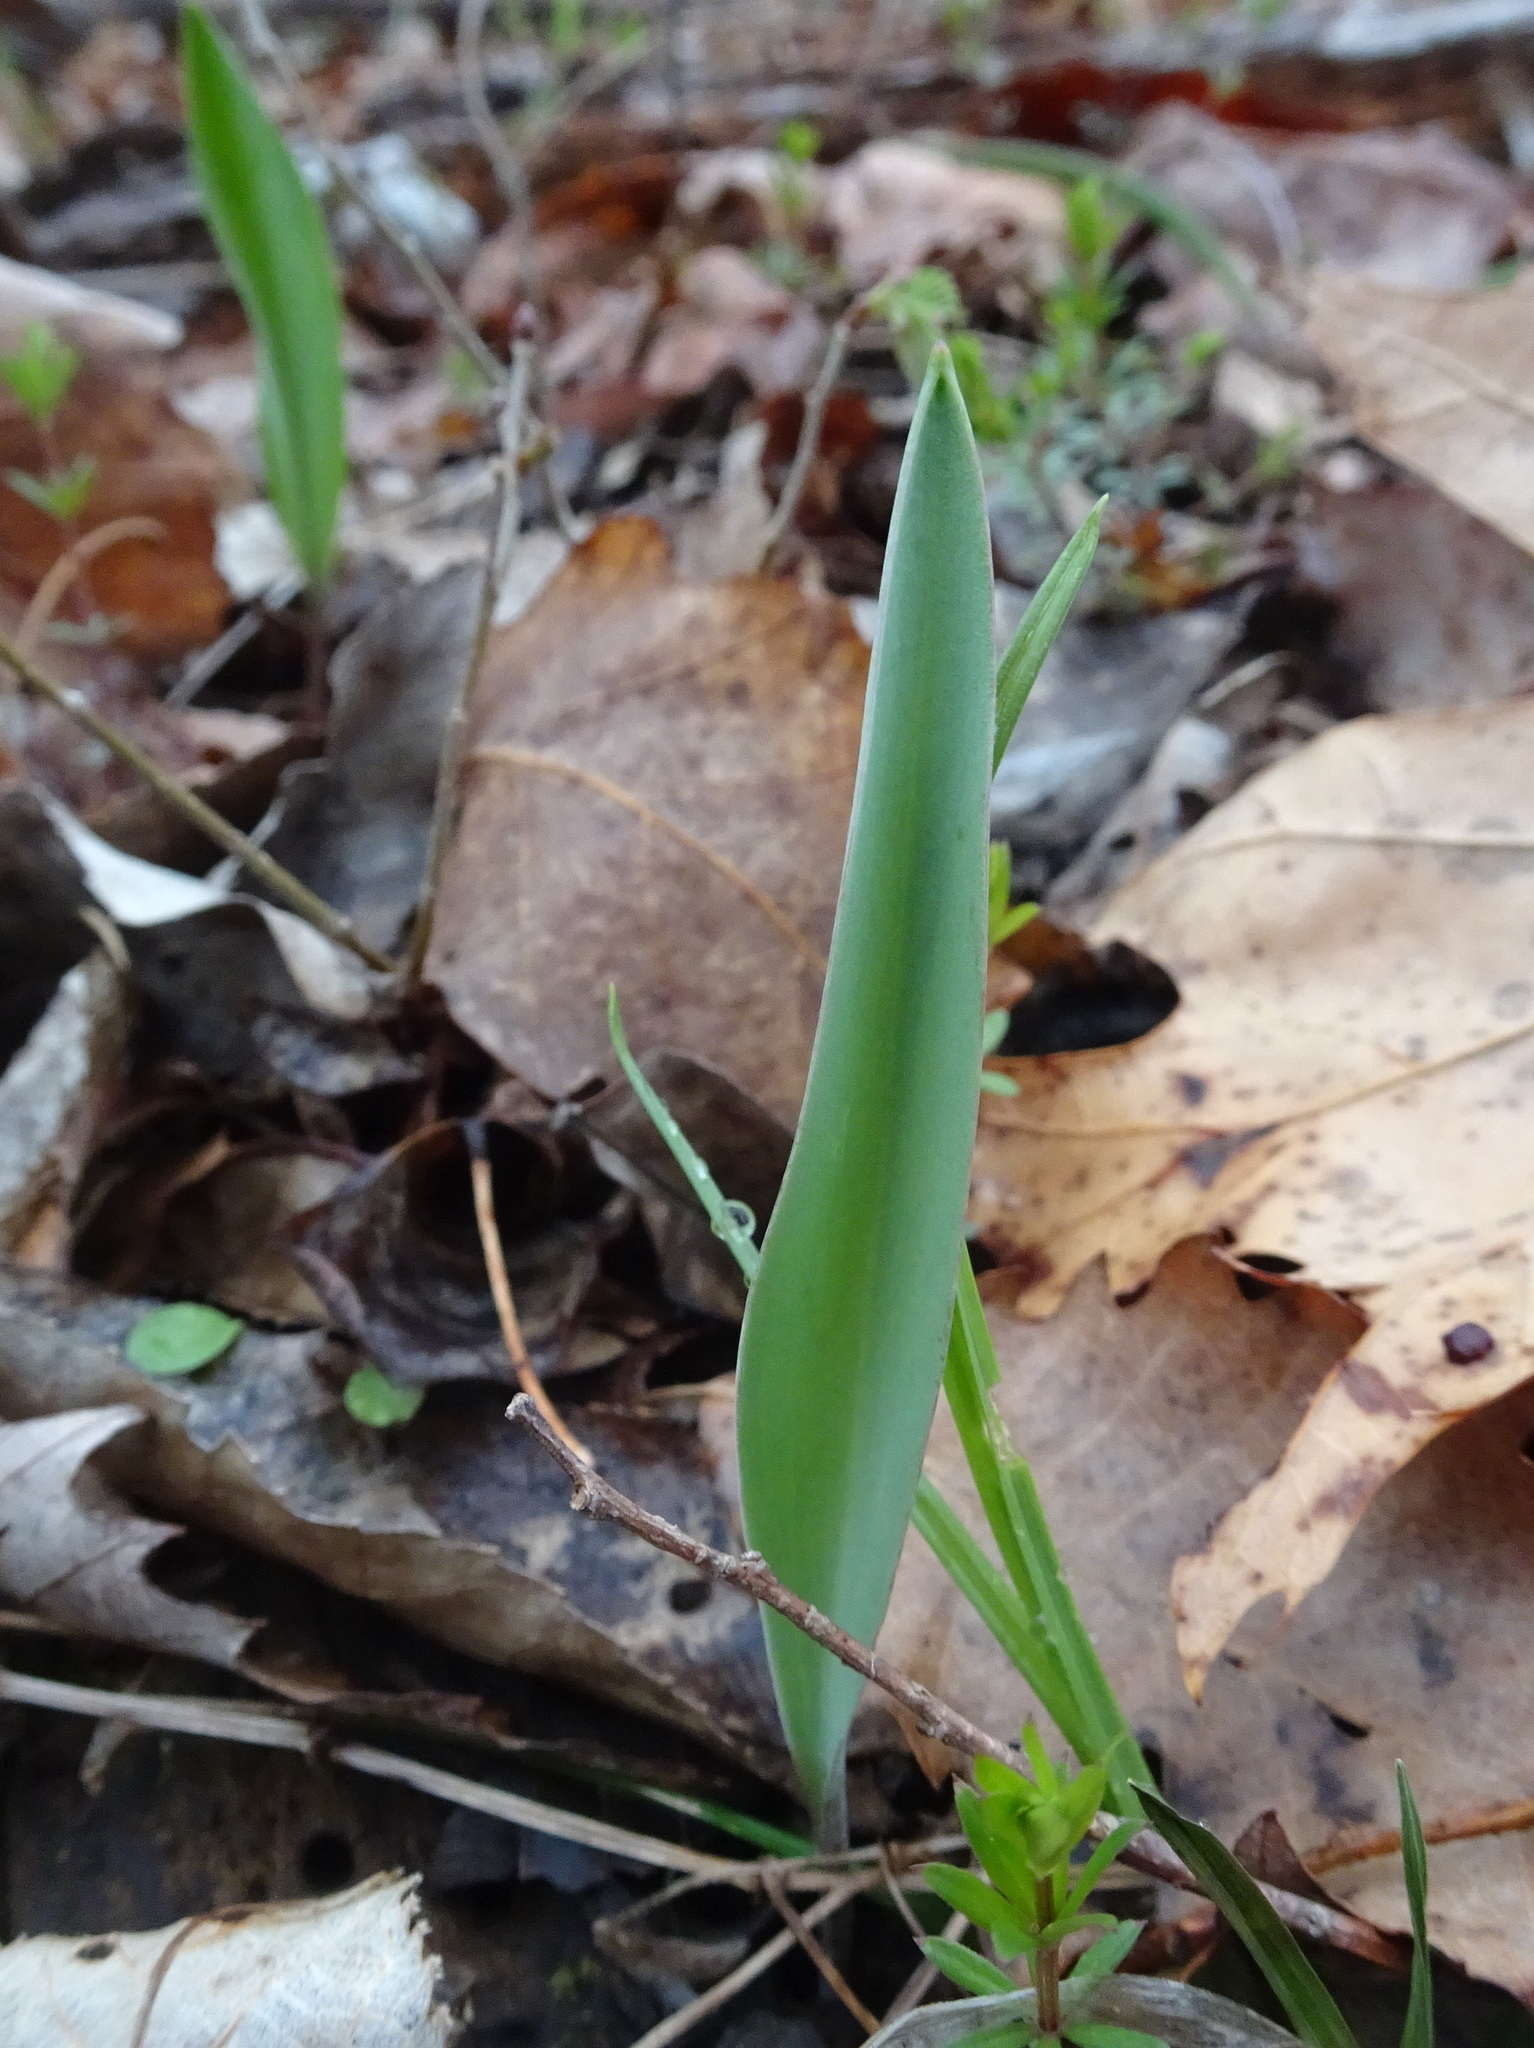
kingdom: Plantae
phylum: Tracheophyta
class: Liliopsida
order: Liliales
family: Liliaceae
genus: Erythronium
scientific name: Erythronium mesochoreum
